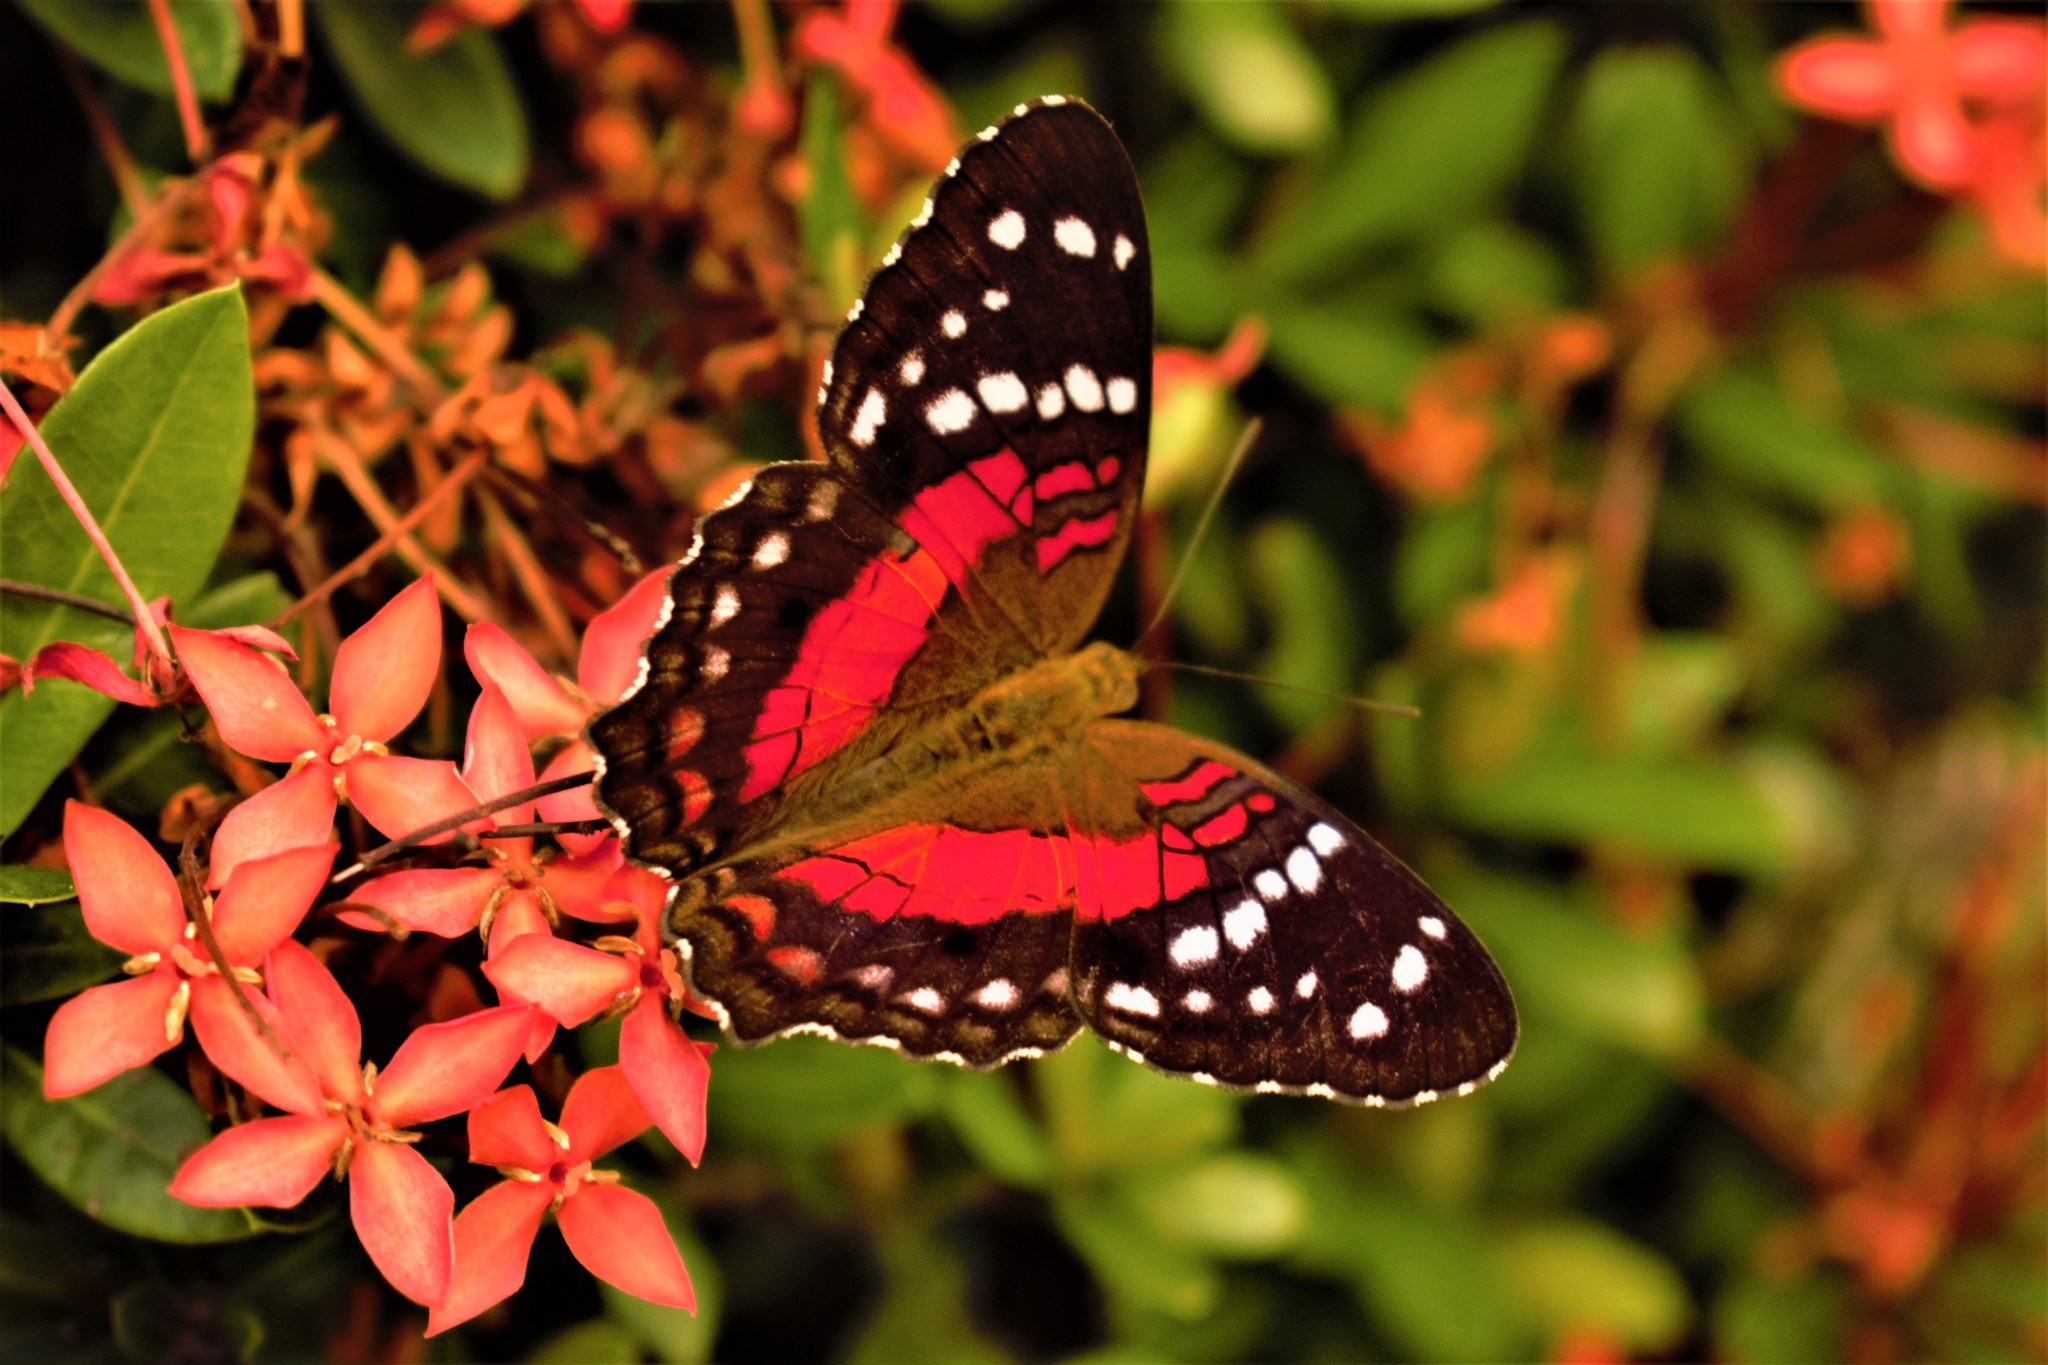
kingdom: Animalia
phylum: Arthropoda
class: Insecta
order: Lepidoptera
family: Nymphalidae
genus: Anartia
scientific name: Anartia amathea
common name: Red peacock
